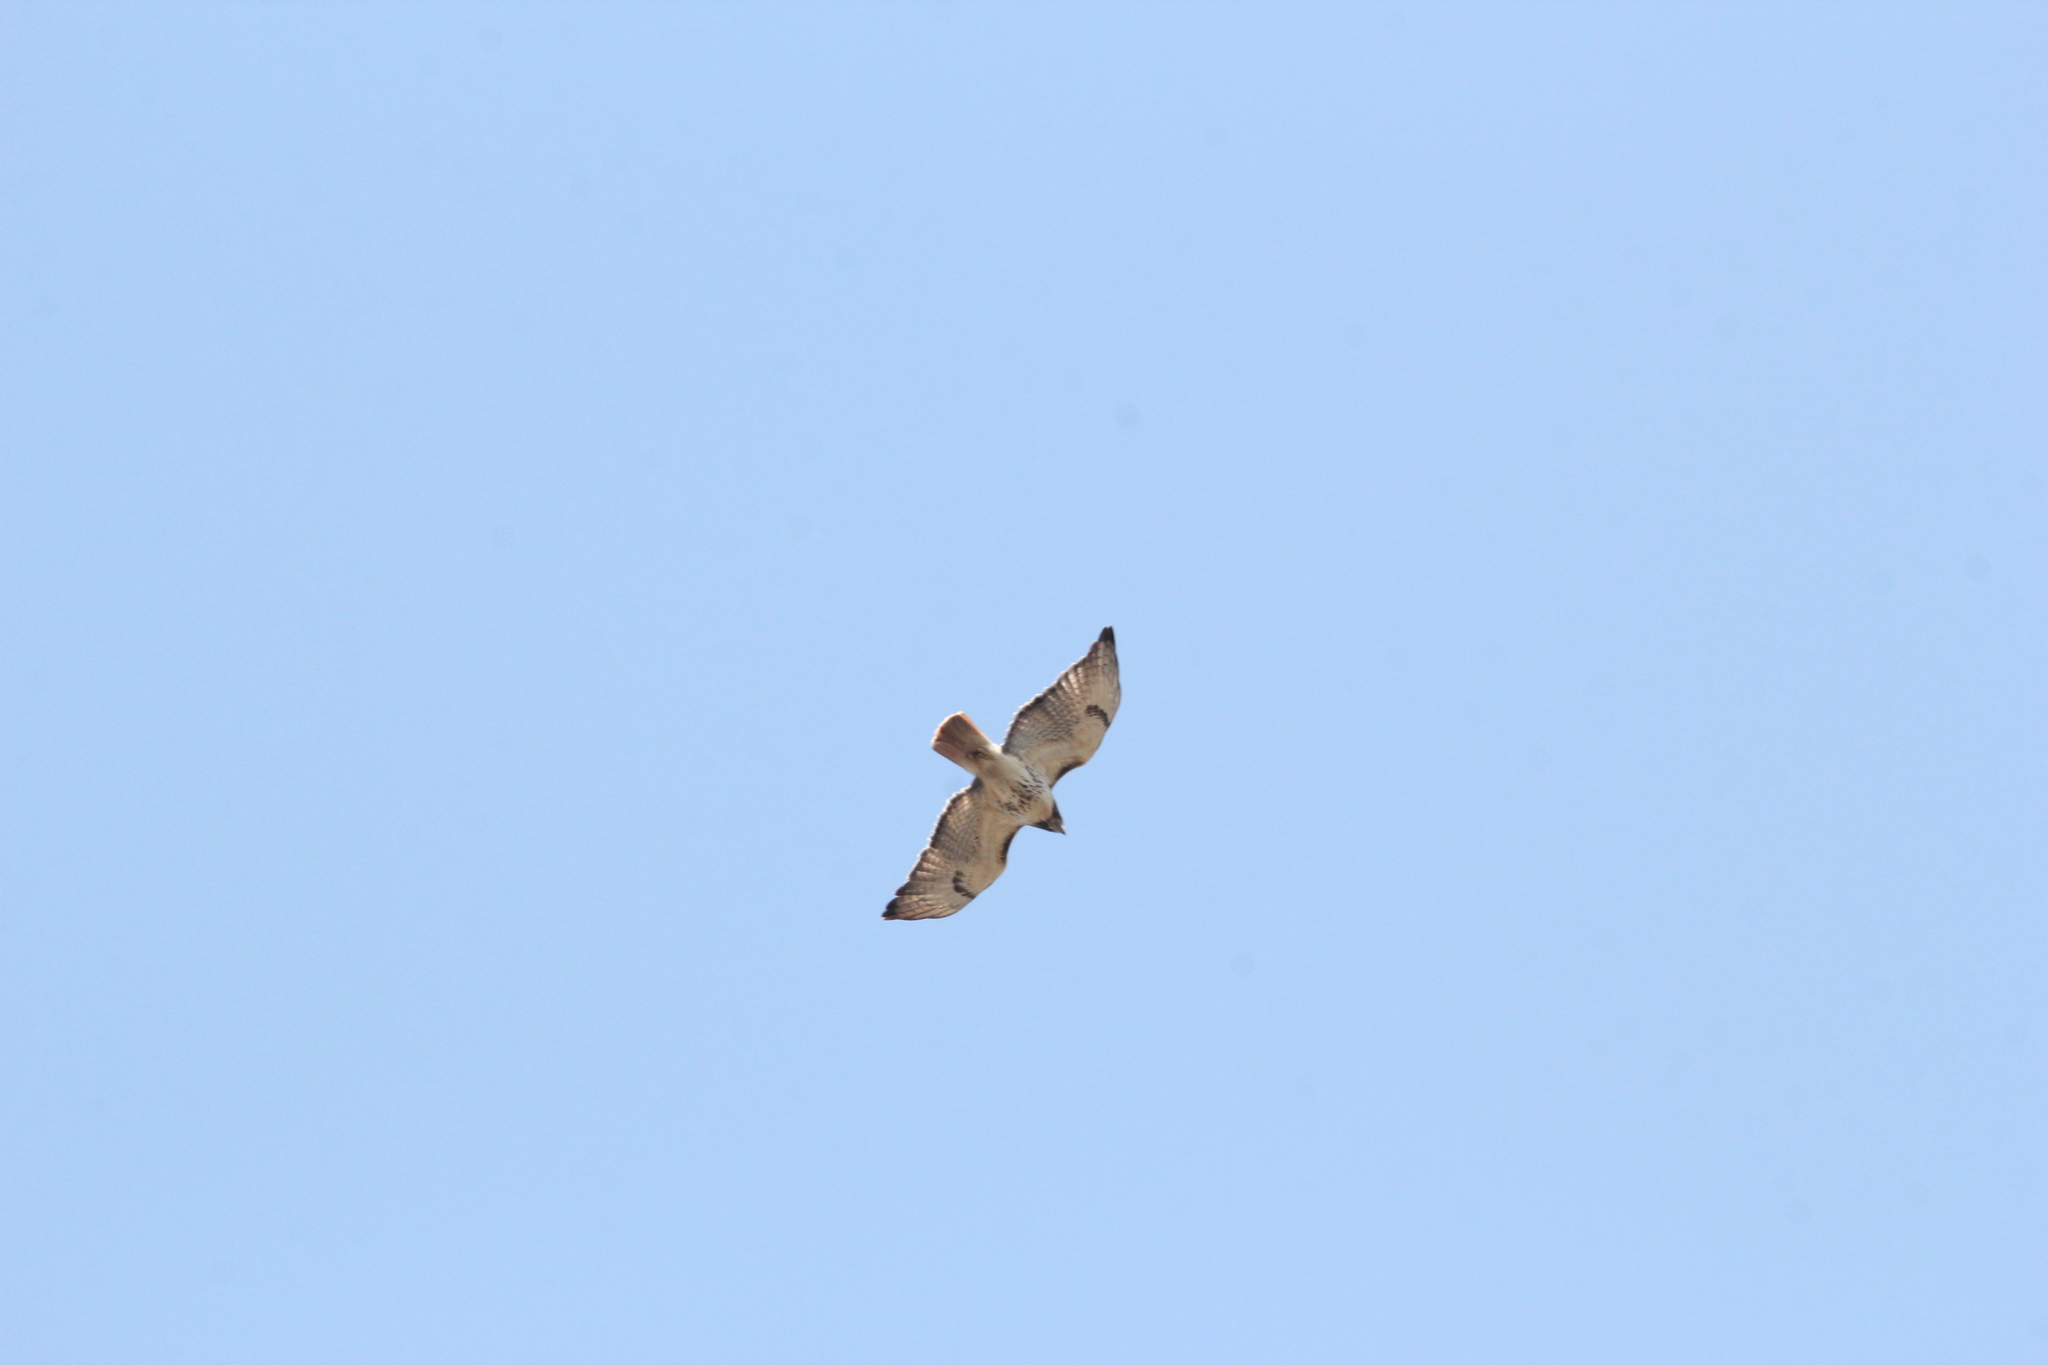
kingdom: Animalia
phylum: Chordata
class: Aves
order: Accipitriformes
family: Accipitridae
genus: Buteo
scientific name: Buteo jamaicensis
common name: Red-tailed hawk
